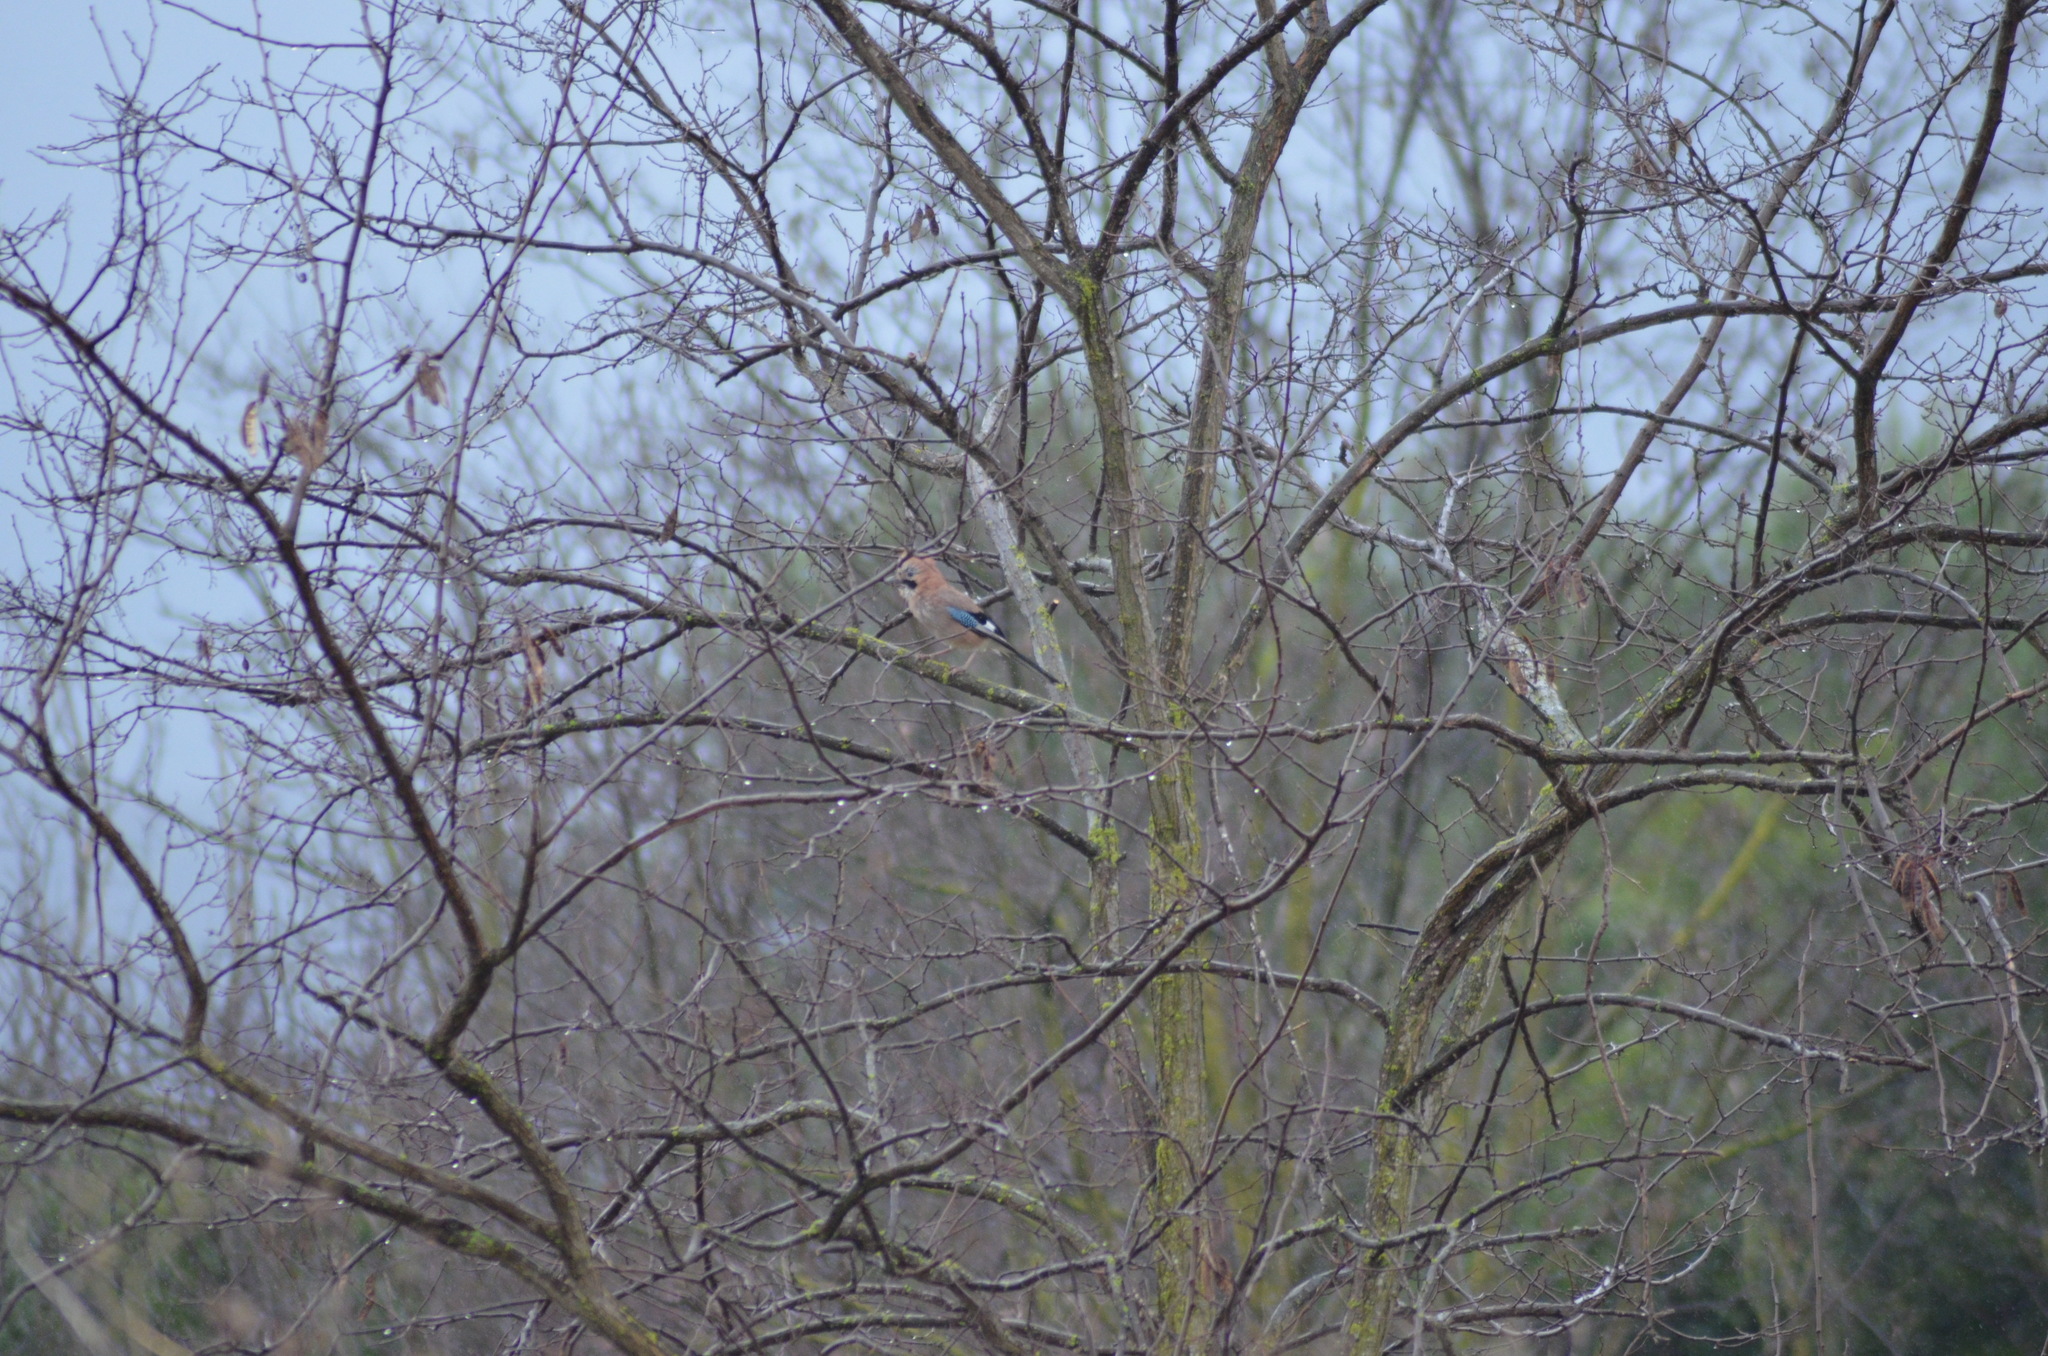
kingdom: Animalia
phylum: Chordata
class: Aves
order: Passeriformes
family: Corvidae
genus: Garrulus
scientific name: Garrulus glandarius
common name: Eurasian jay
